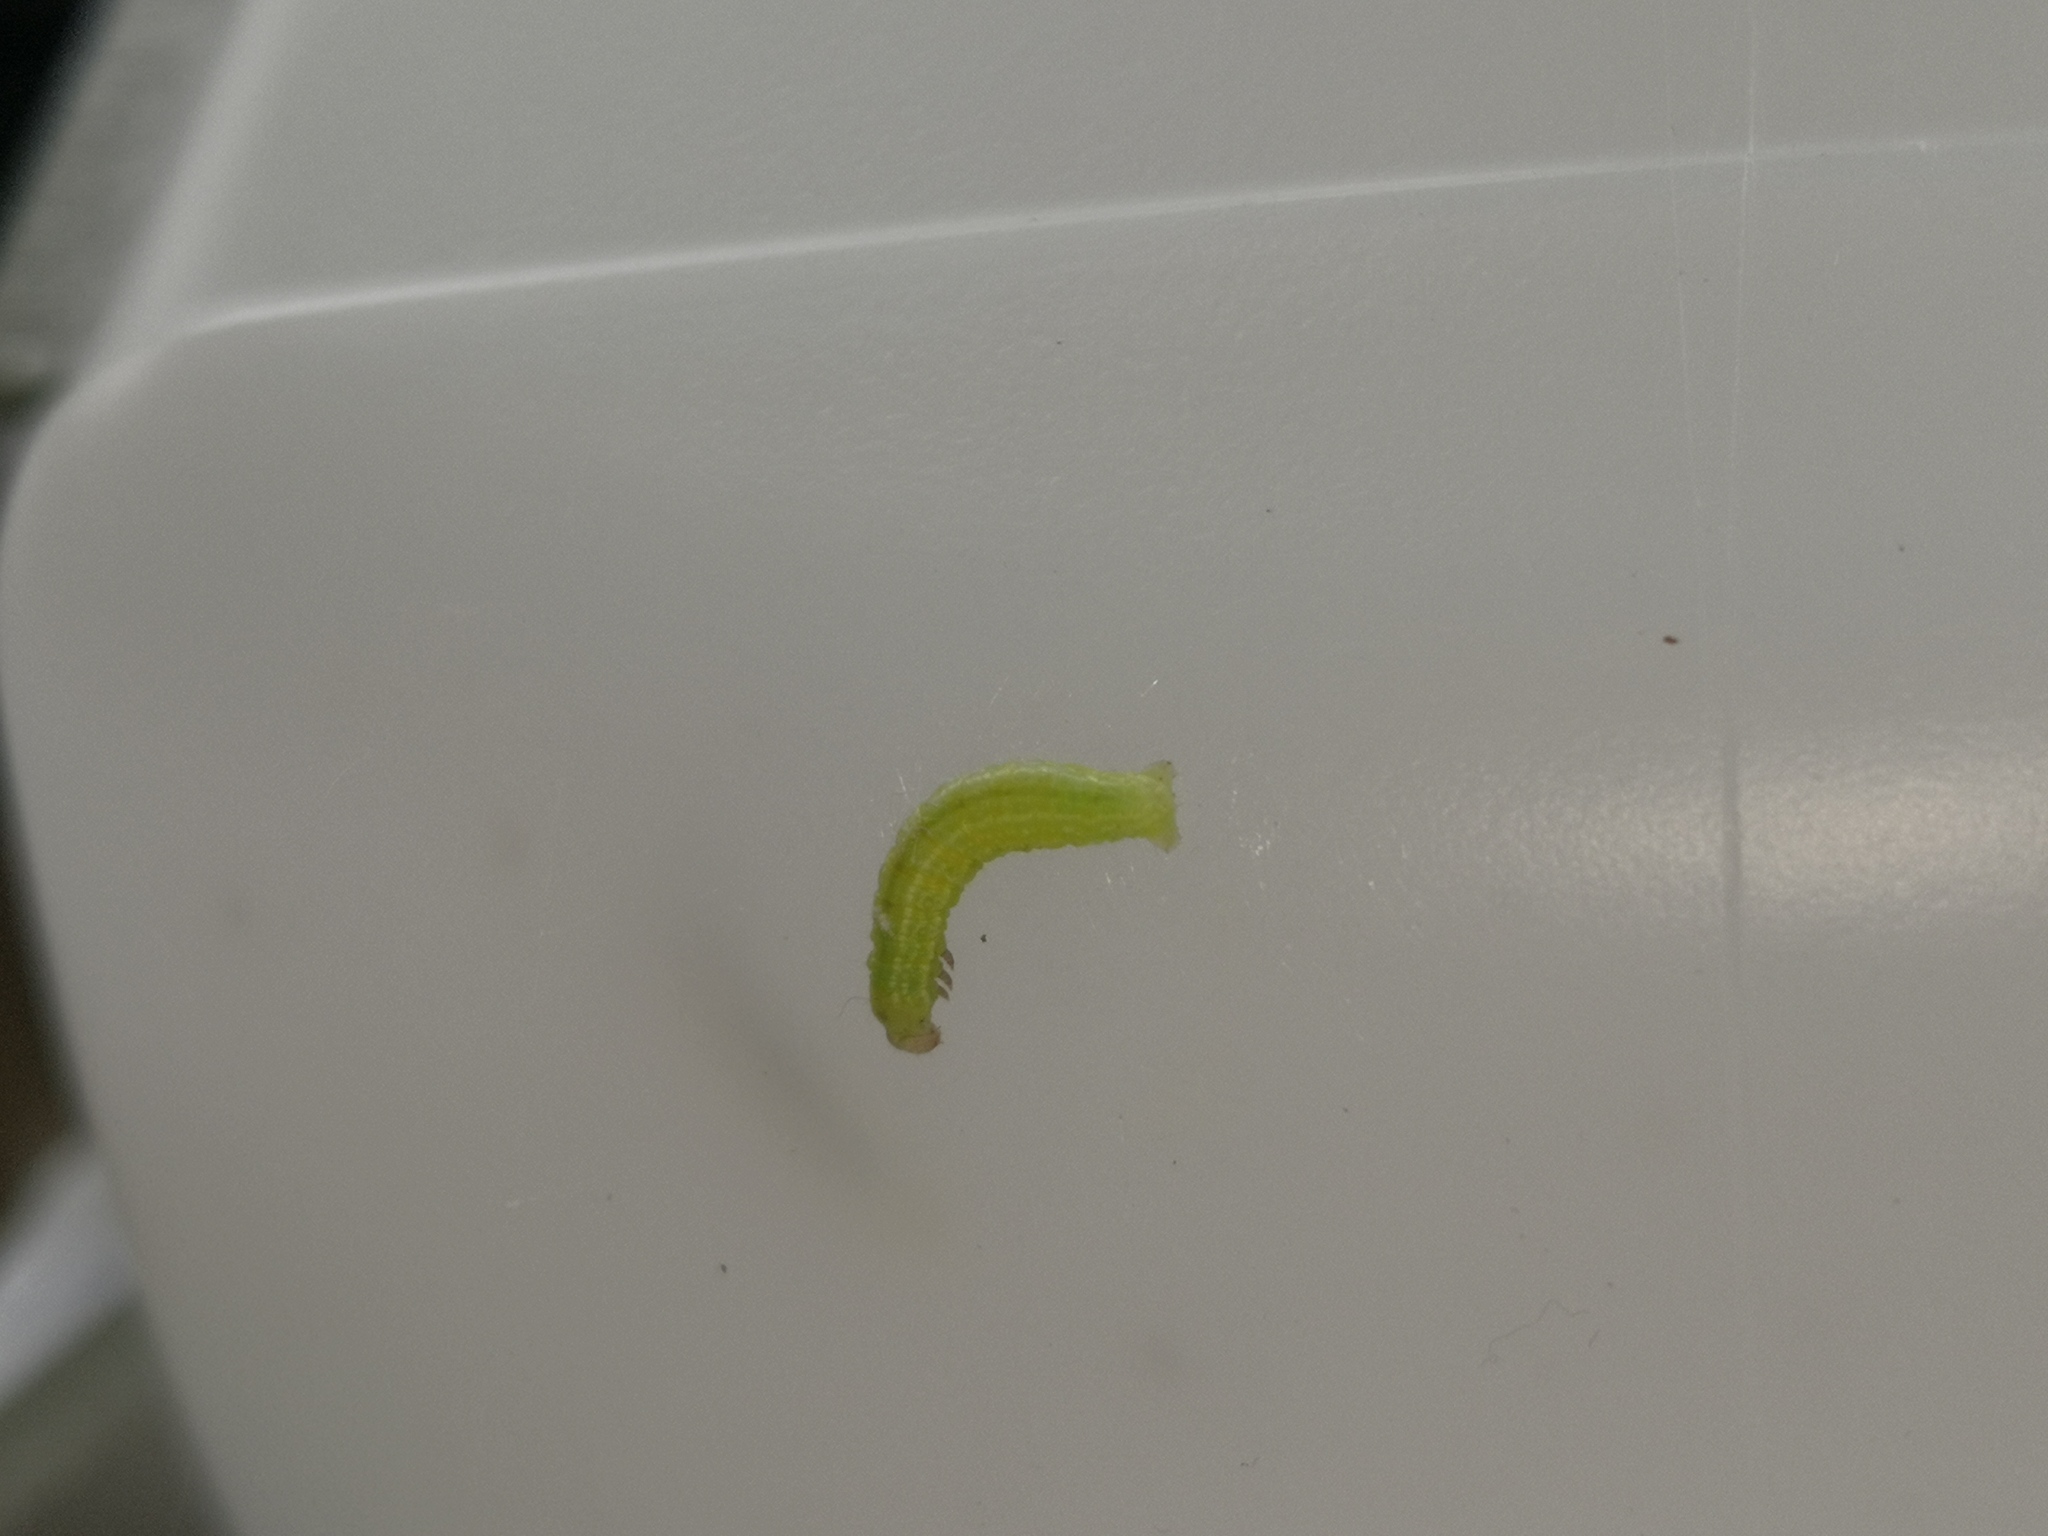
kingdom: Animalia
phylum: Arthropoda
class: Insecta
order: Lepidoptera
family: Geometridae
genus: Operophtera
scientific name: Operophtera brumata
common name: Winter moth
